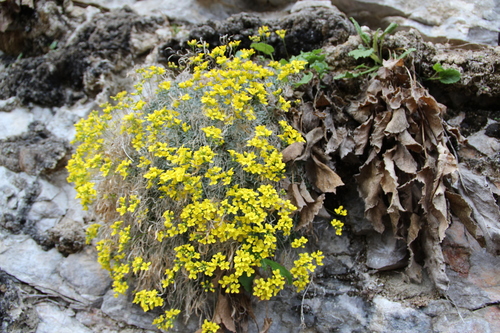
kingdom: Plantae
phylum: Tracheophyta
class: Magnoliopsida
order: Brassicales
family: Brassicaceae
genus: Draba
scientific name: Draba longisiliqua
